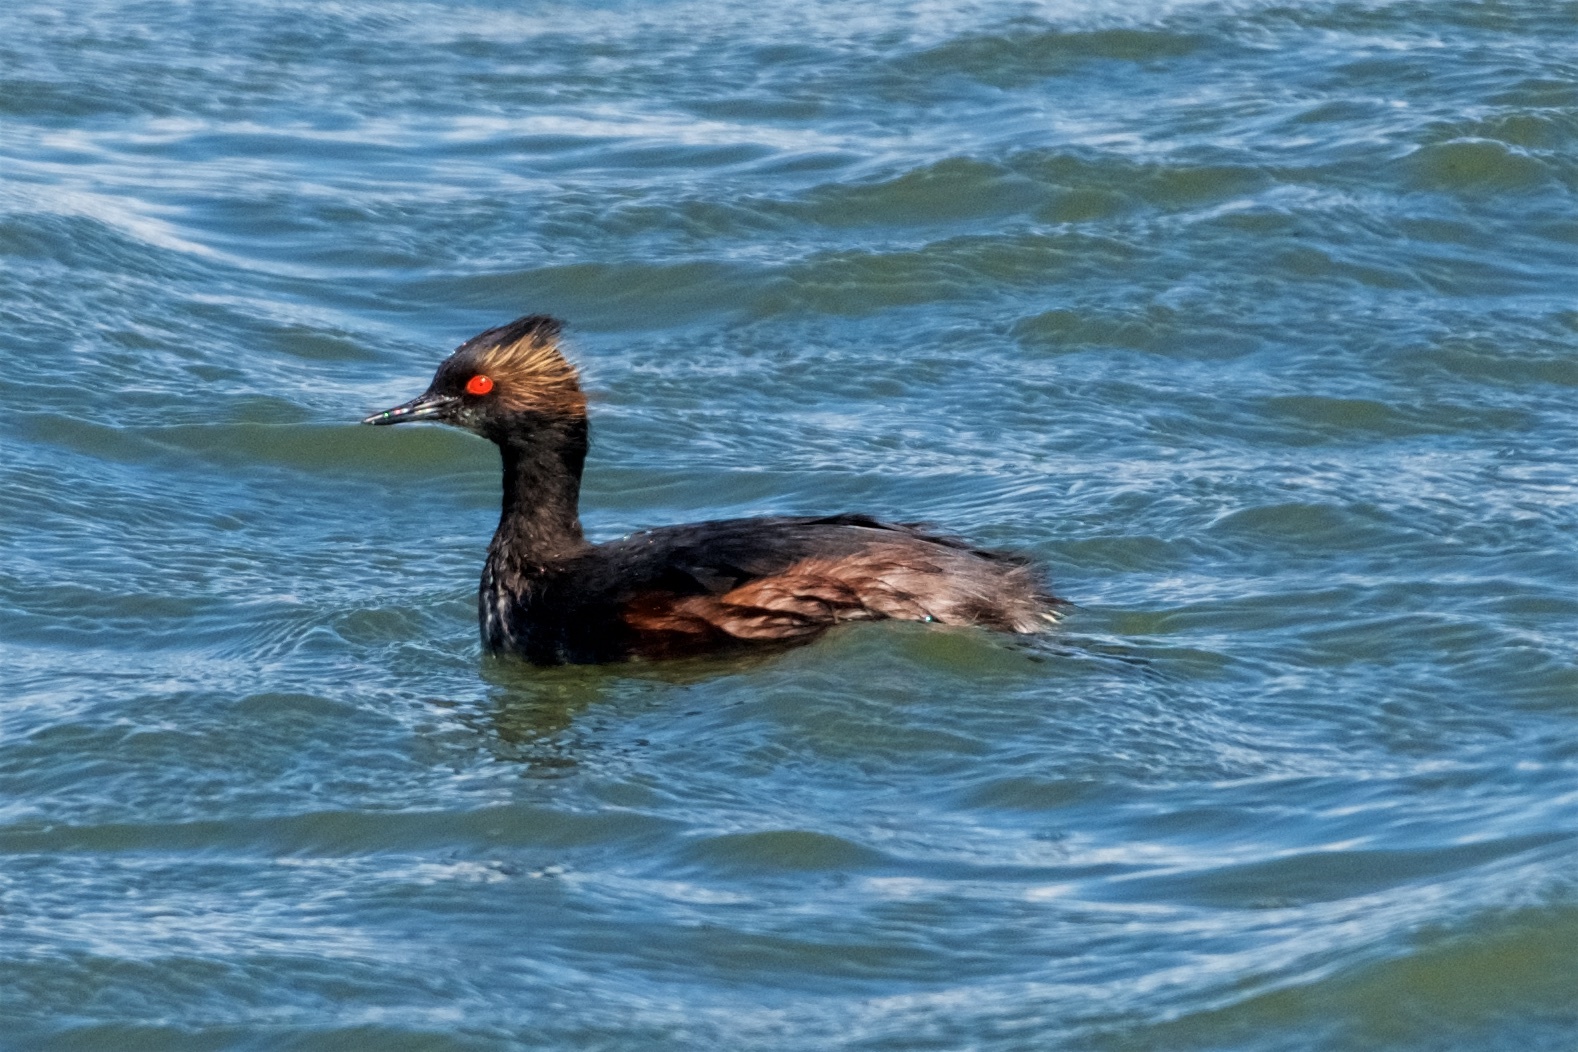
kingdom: Animalia
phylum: Chordata
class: Aves
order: Podicipediformes
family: Podicipedidae
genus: Podiceps
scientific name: Podiceps nigricollis
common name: Black-necked grebe
